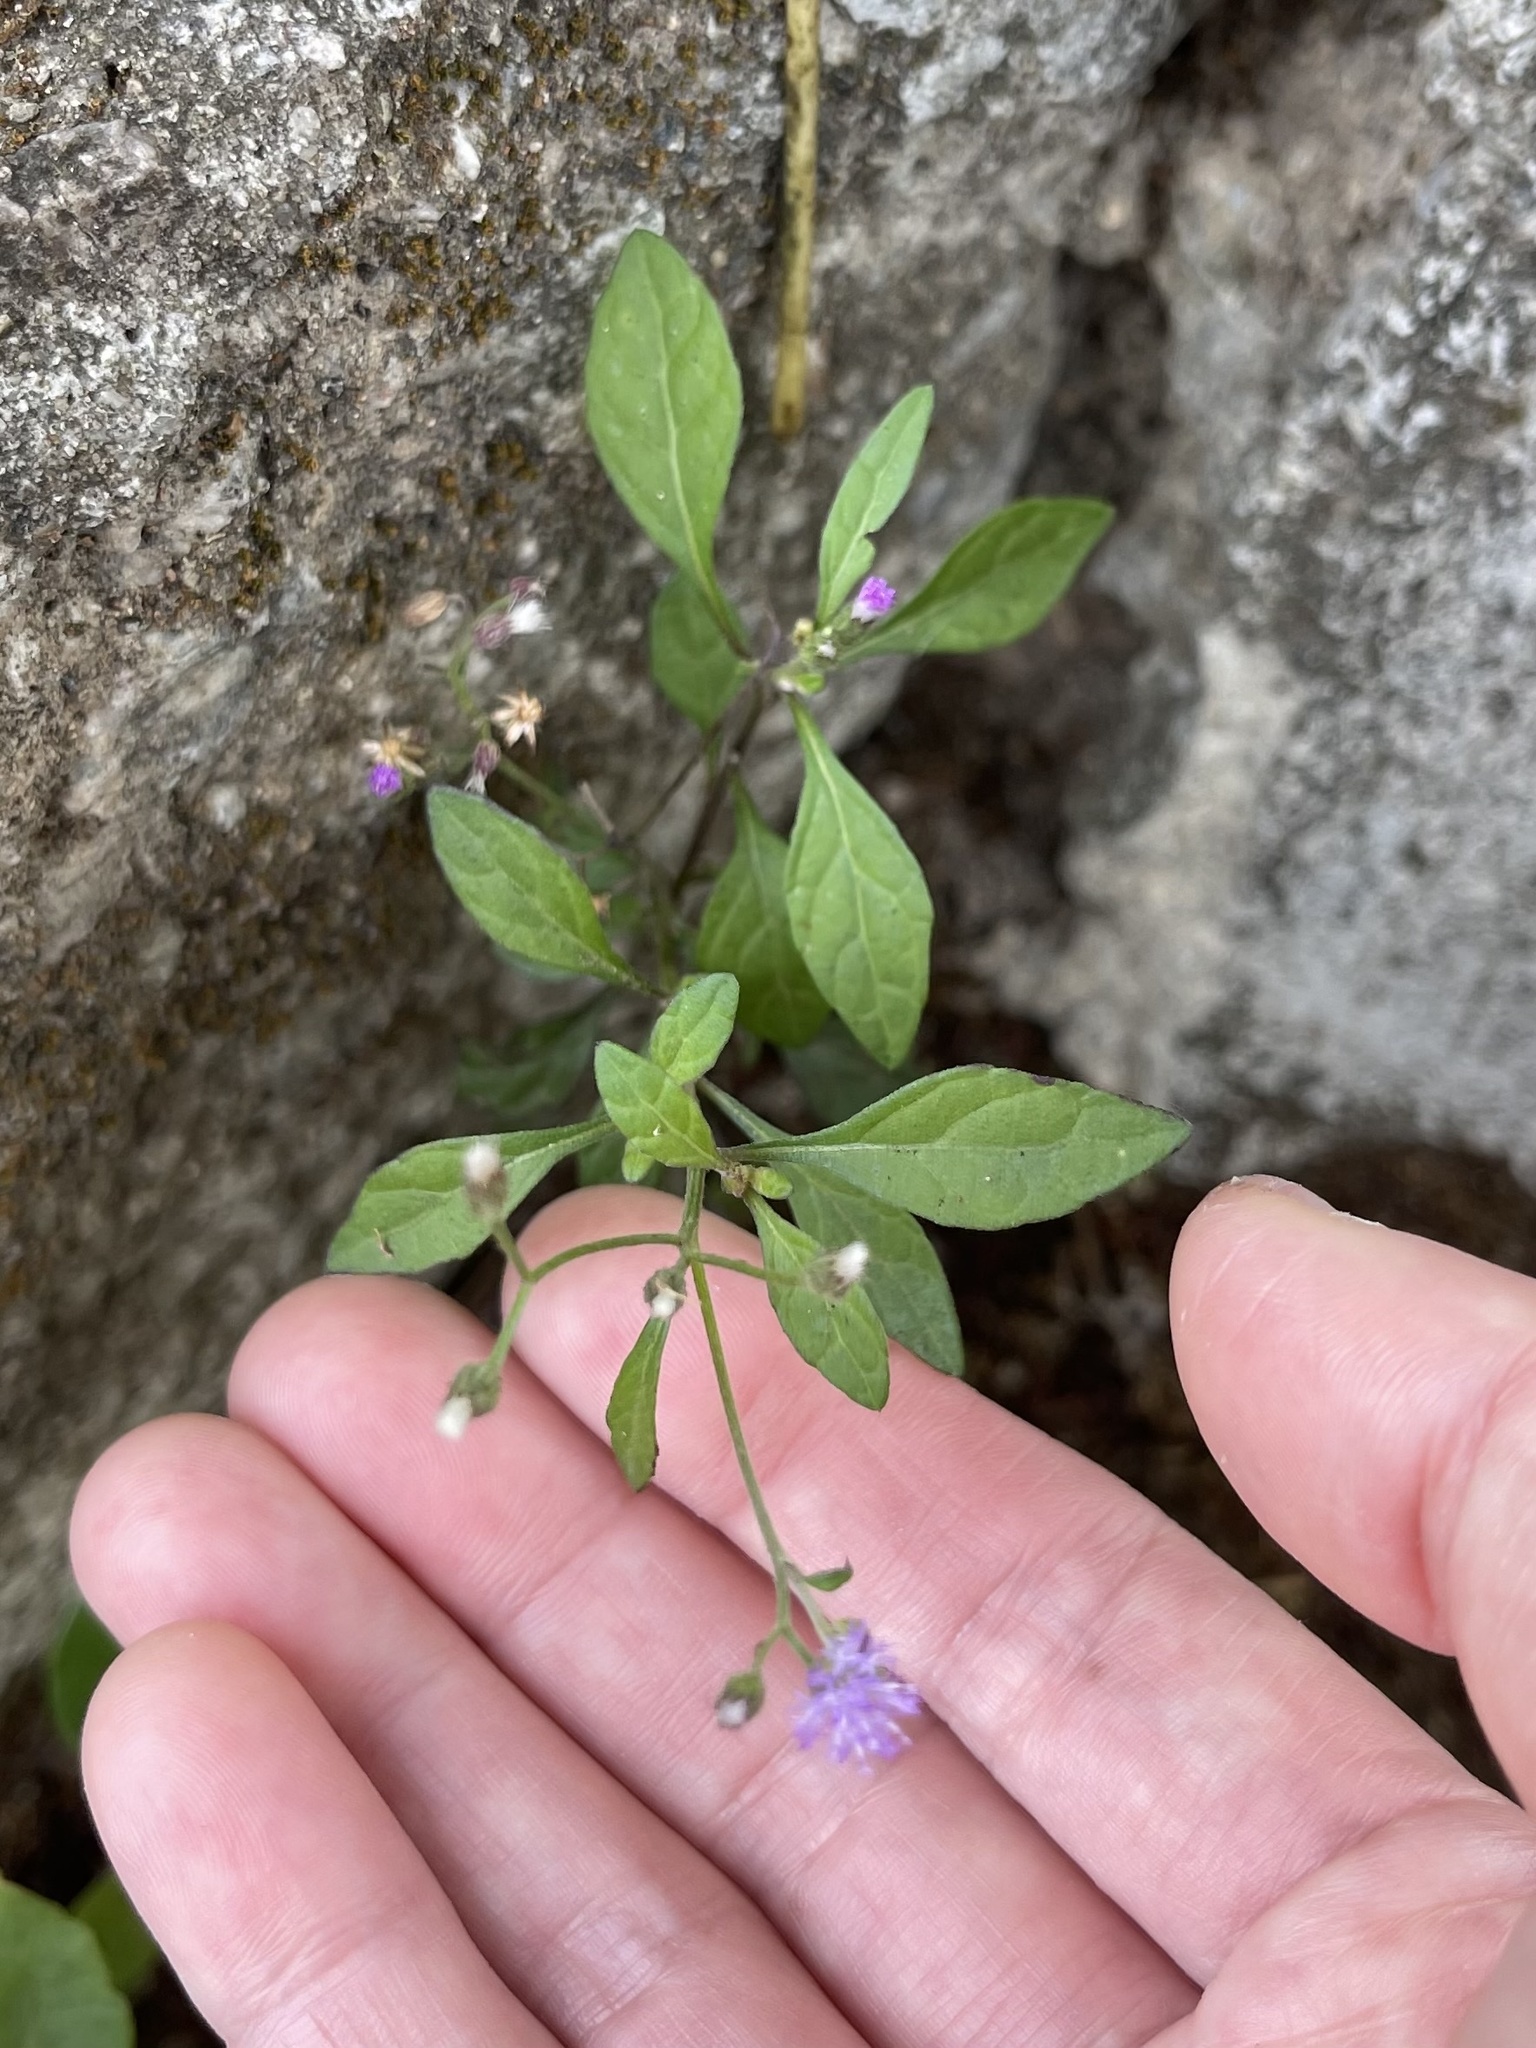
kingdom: Plantae
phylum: Tracheophyta
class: Magnoliopsida
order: Asterales
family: Asteraceae
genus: Cyanthillium
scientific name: Cyanthillium cinereum
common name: Little ironweed
